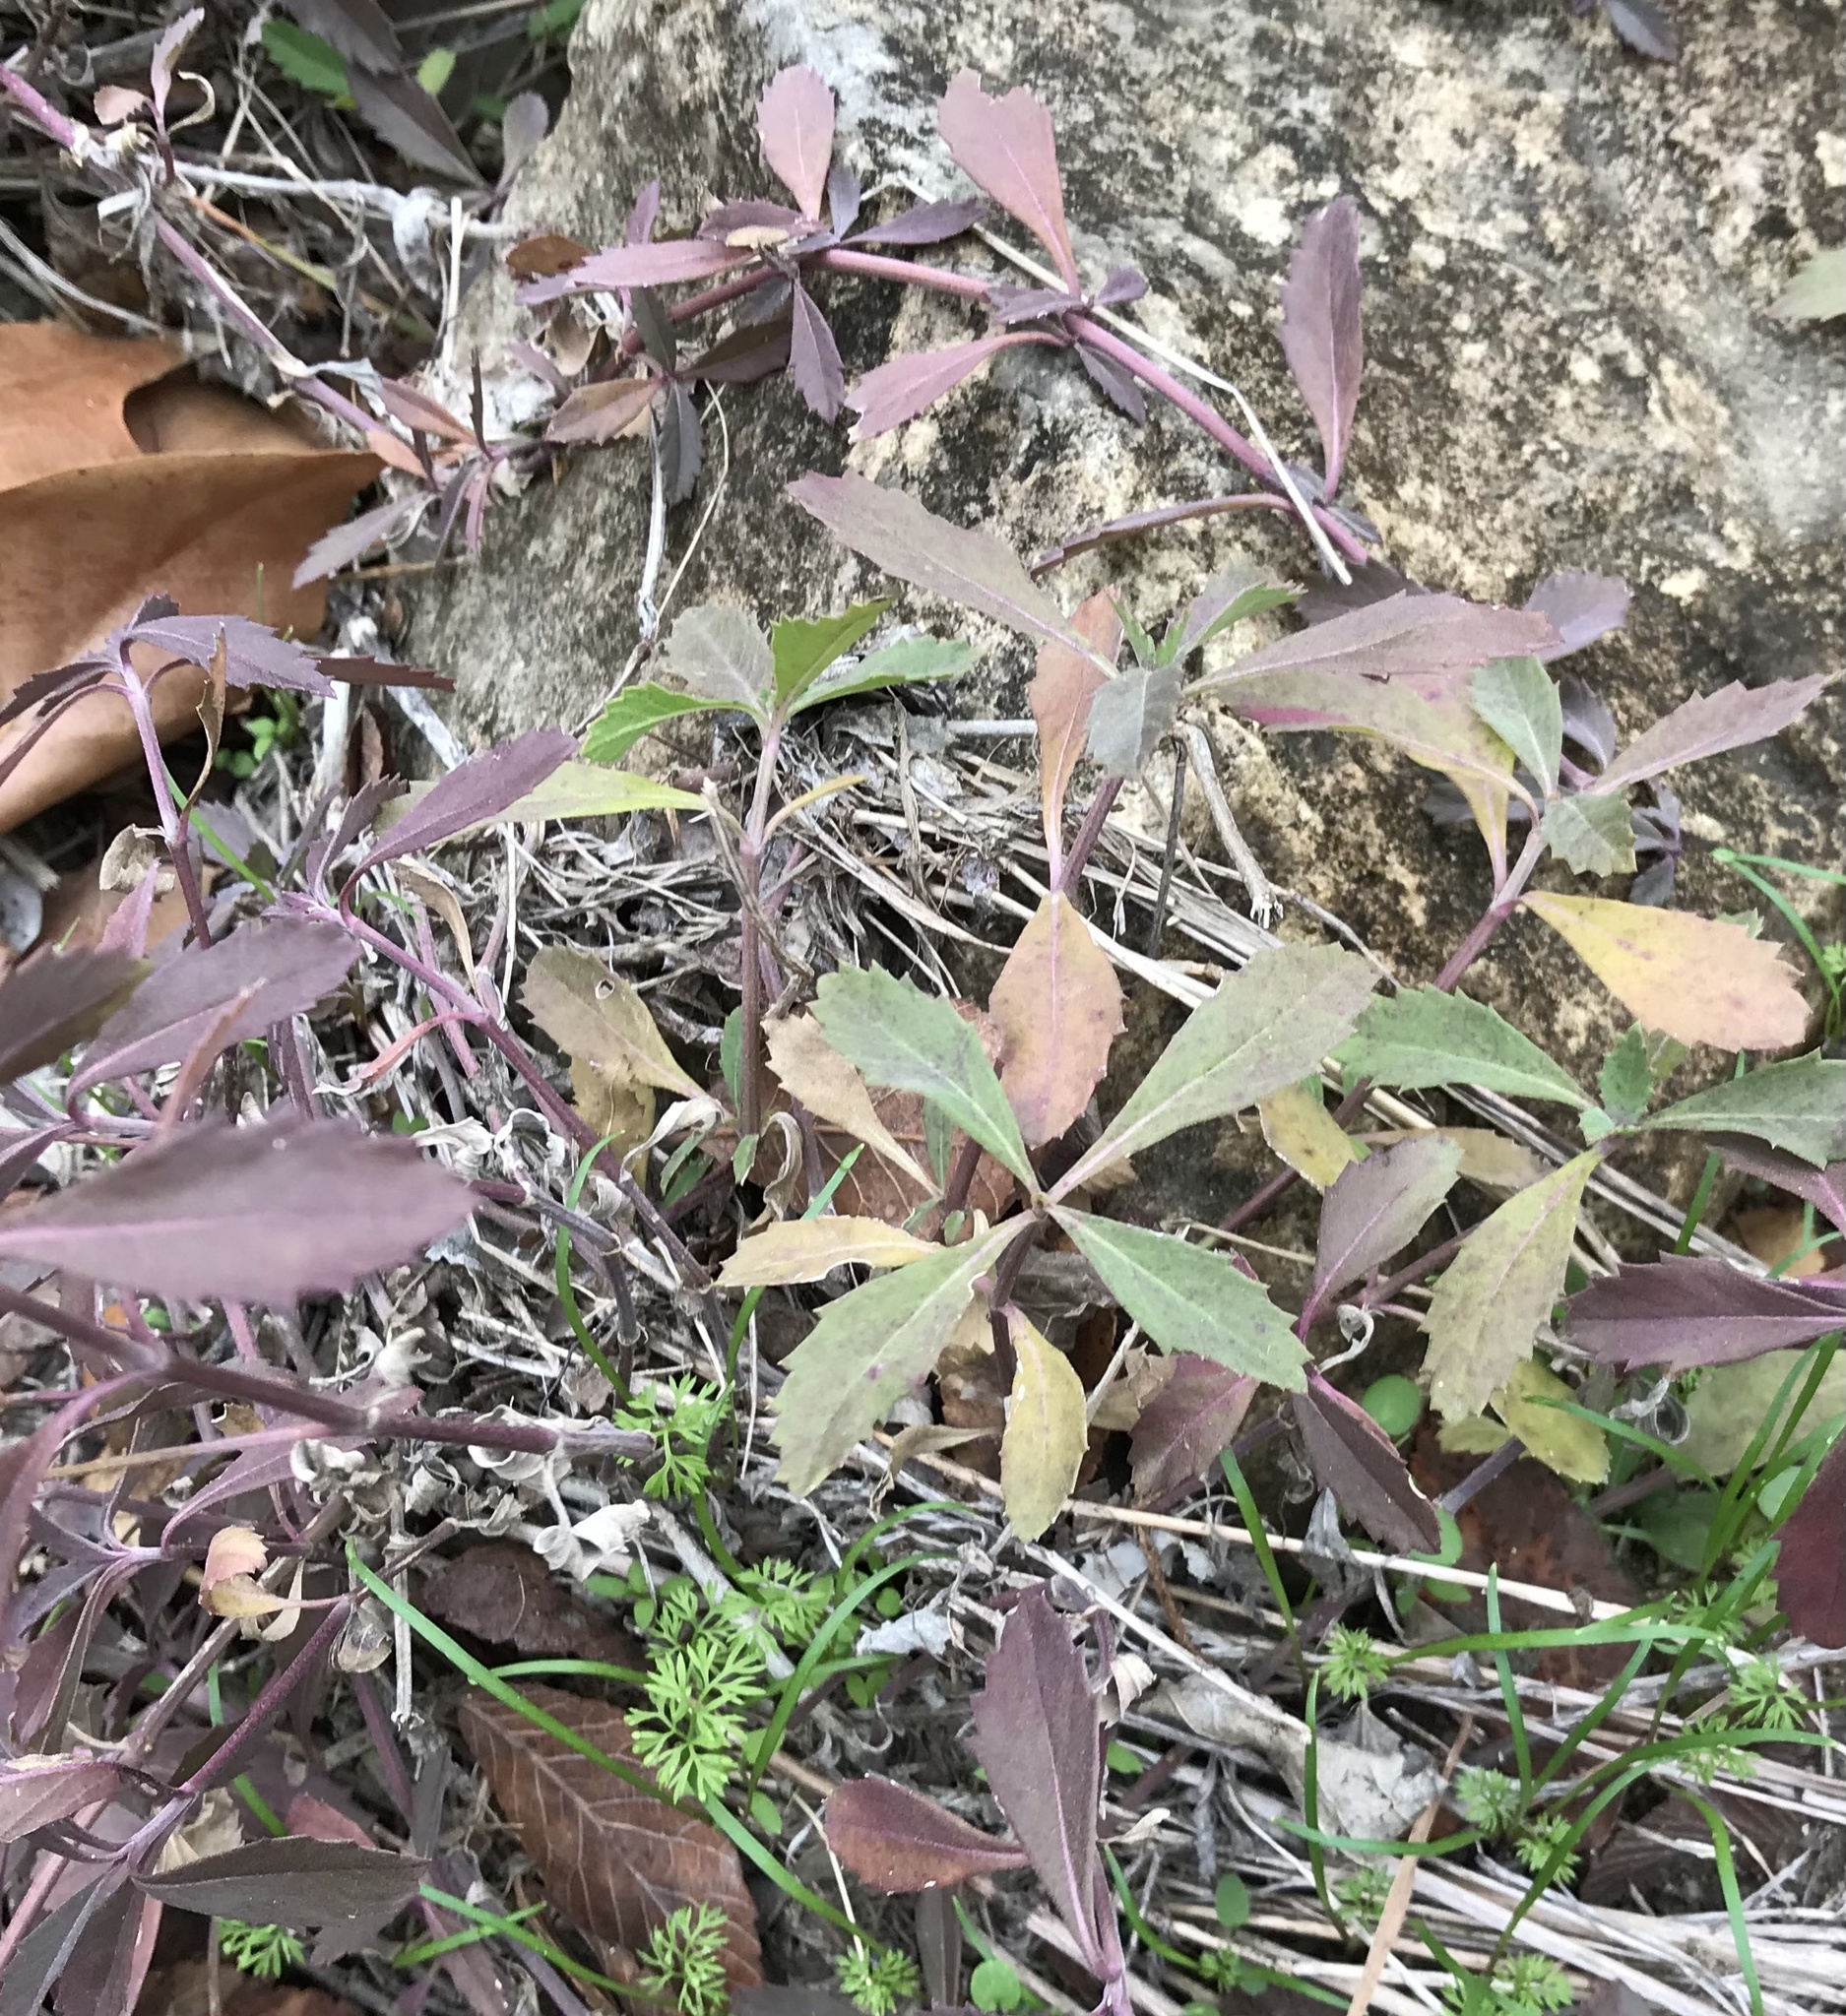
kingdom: Plantae
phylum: Tracheophyta
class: Magnoliopsida
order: Lamiales
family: Verbenaceae
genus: Phyla
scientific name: Phyla nodiflora
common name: Frogfruit
